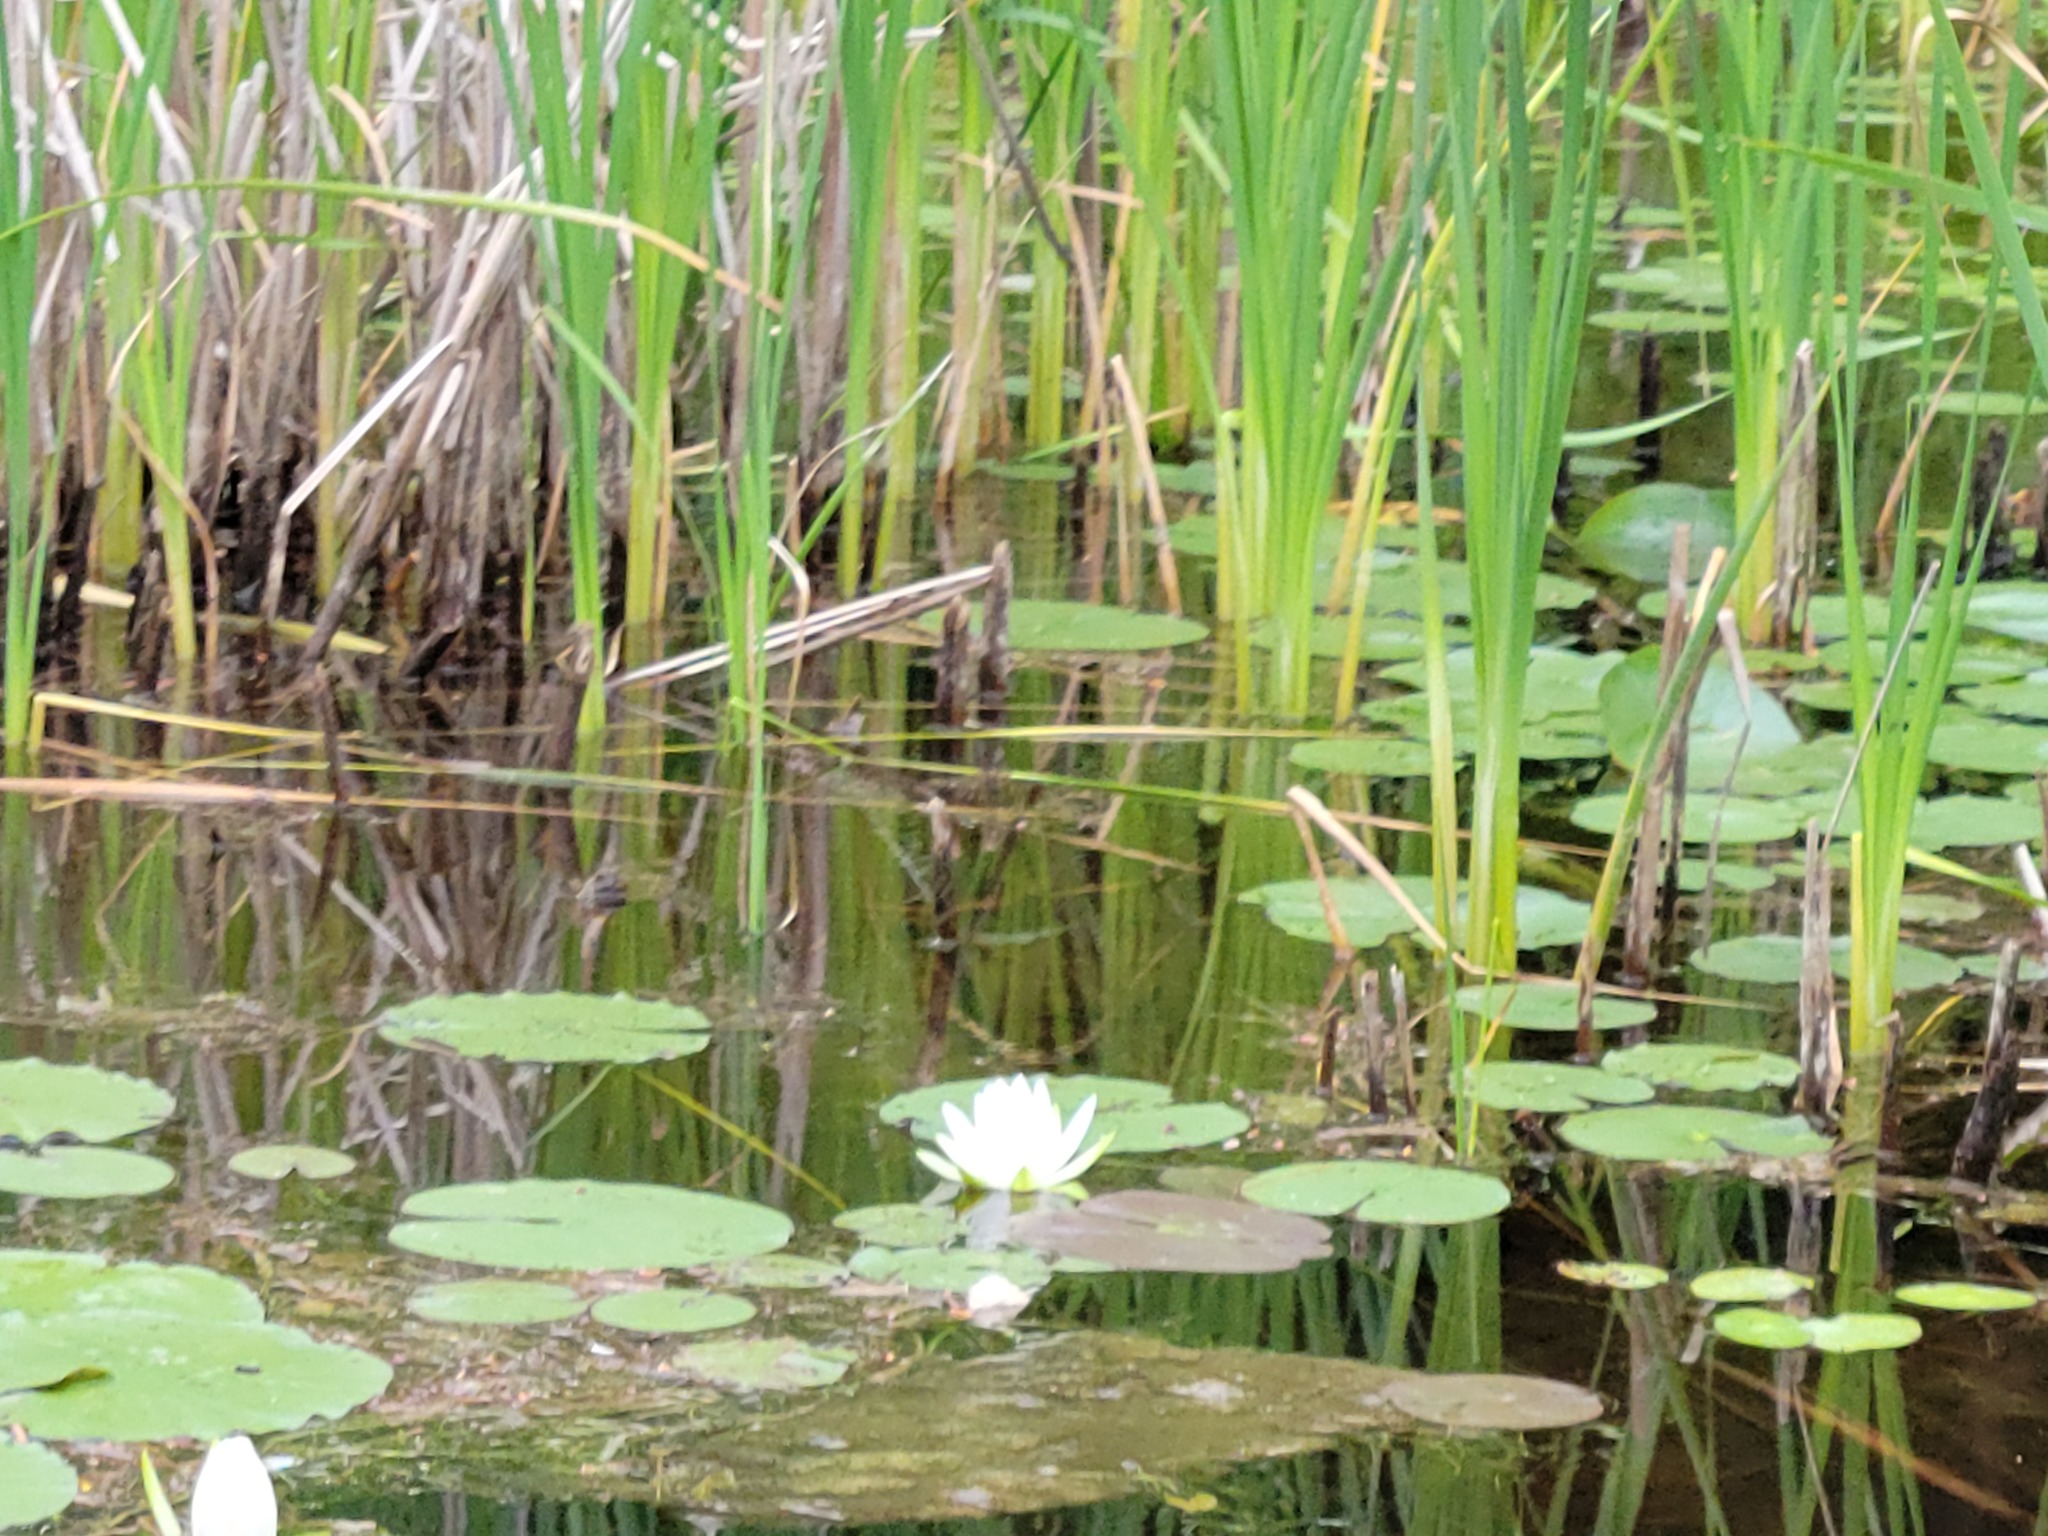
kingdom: Plantae
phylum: Tracheophyta
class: Magnoliopsida
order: Nymphaeales
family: Nymphaeaceae
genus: Nymphaea
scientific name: Nymphaea odorata
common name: Fragrant water-lily
